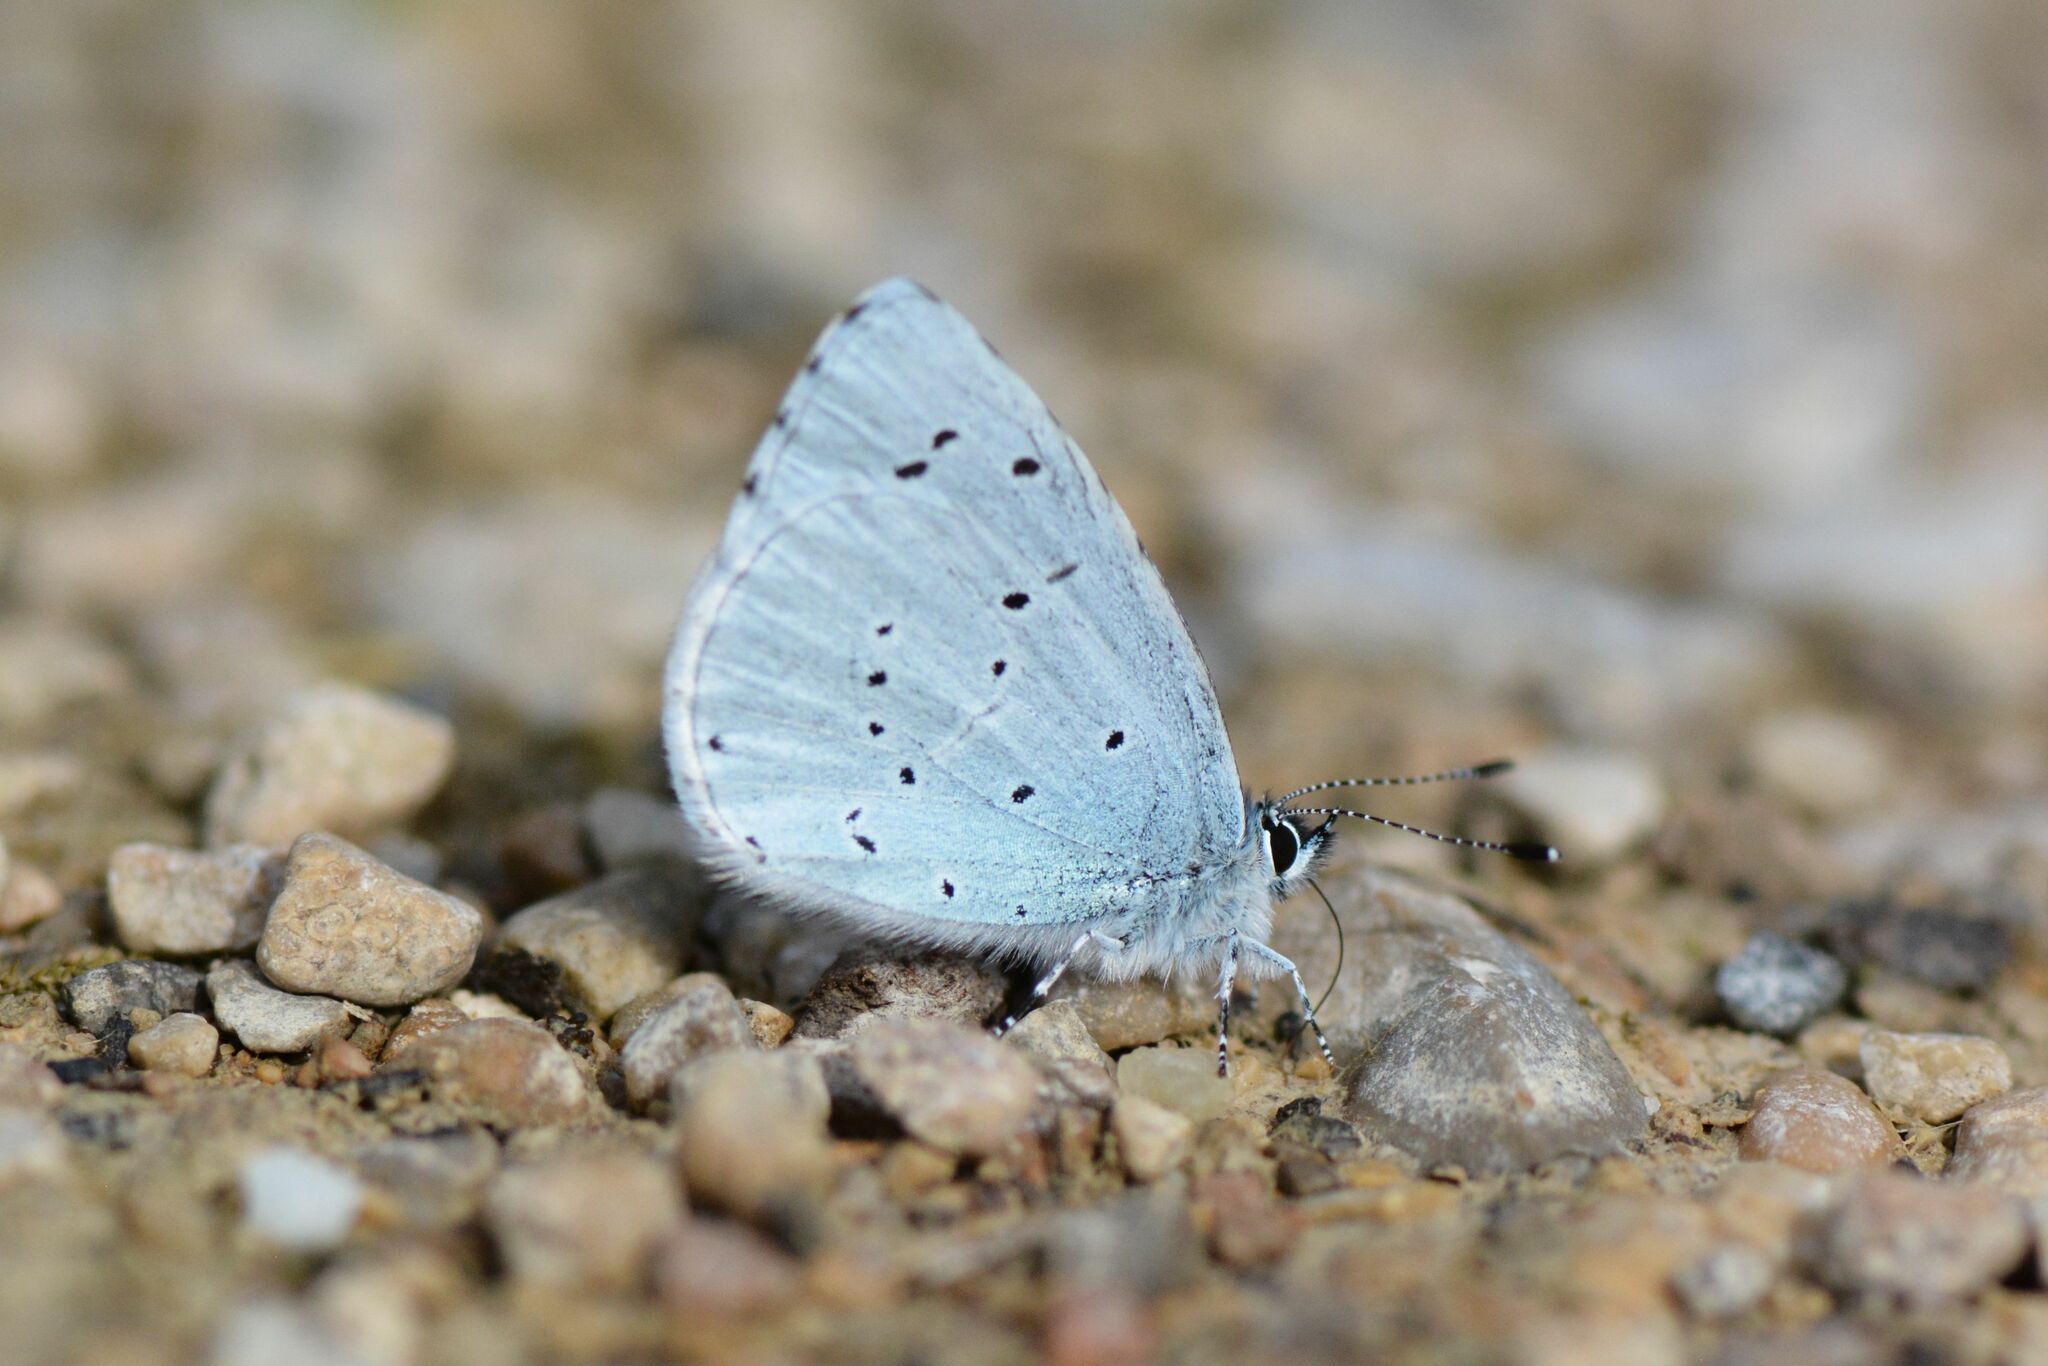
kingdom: Animalia
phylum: Arthropoda
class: Insecta
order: Lepidoptera
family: Lycaenidae
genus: Celastrina
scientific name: Celastrina argiolus
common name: Holly blue
